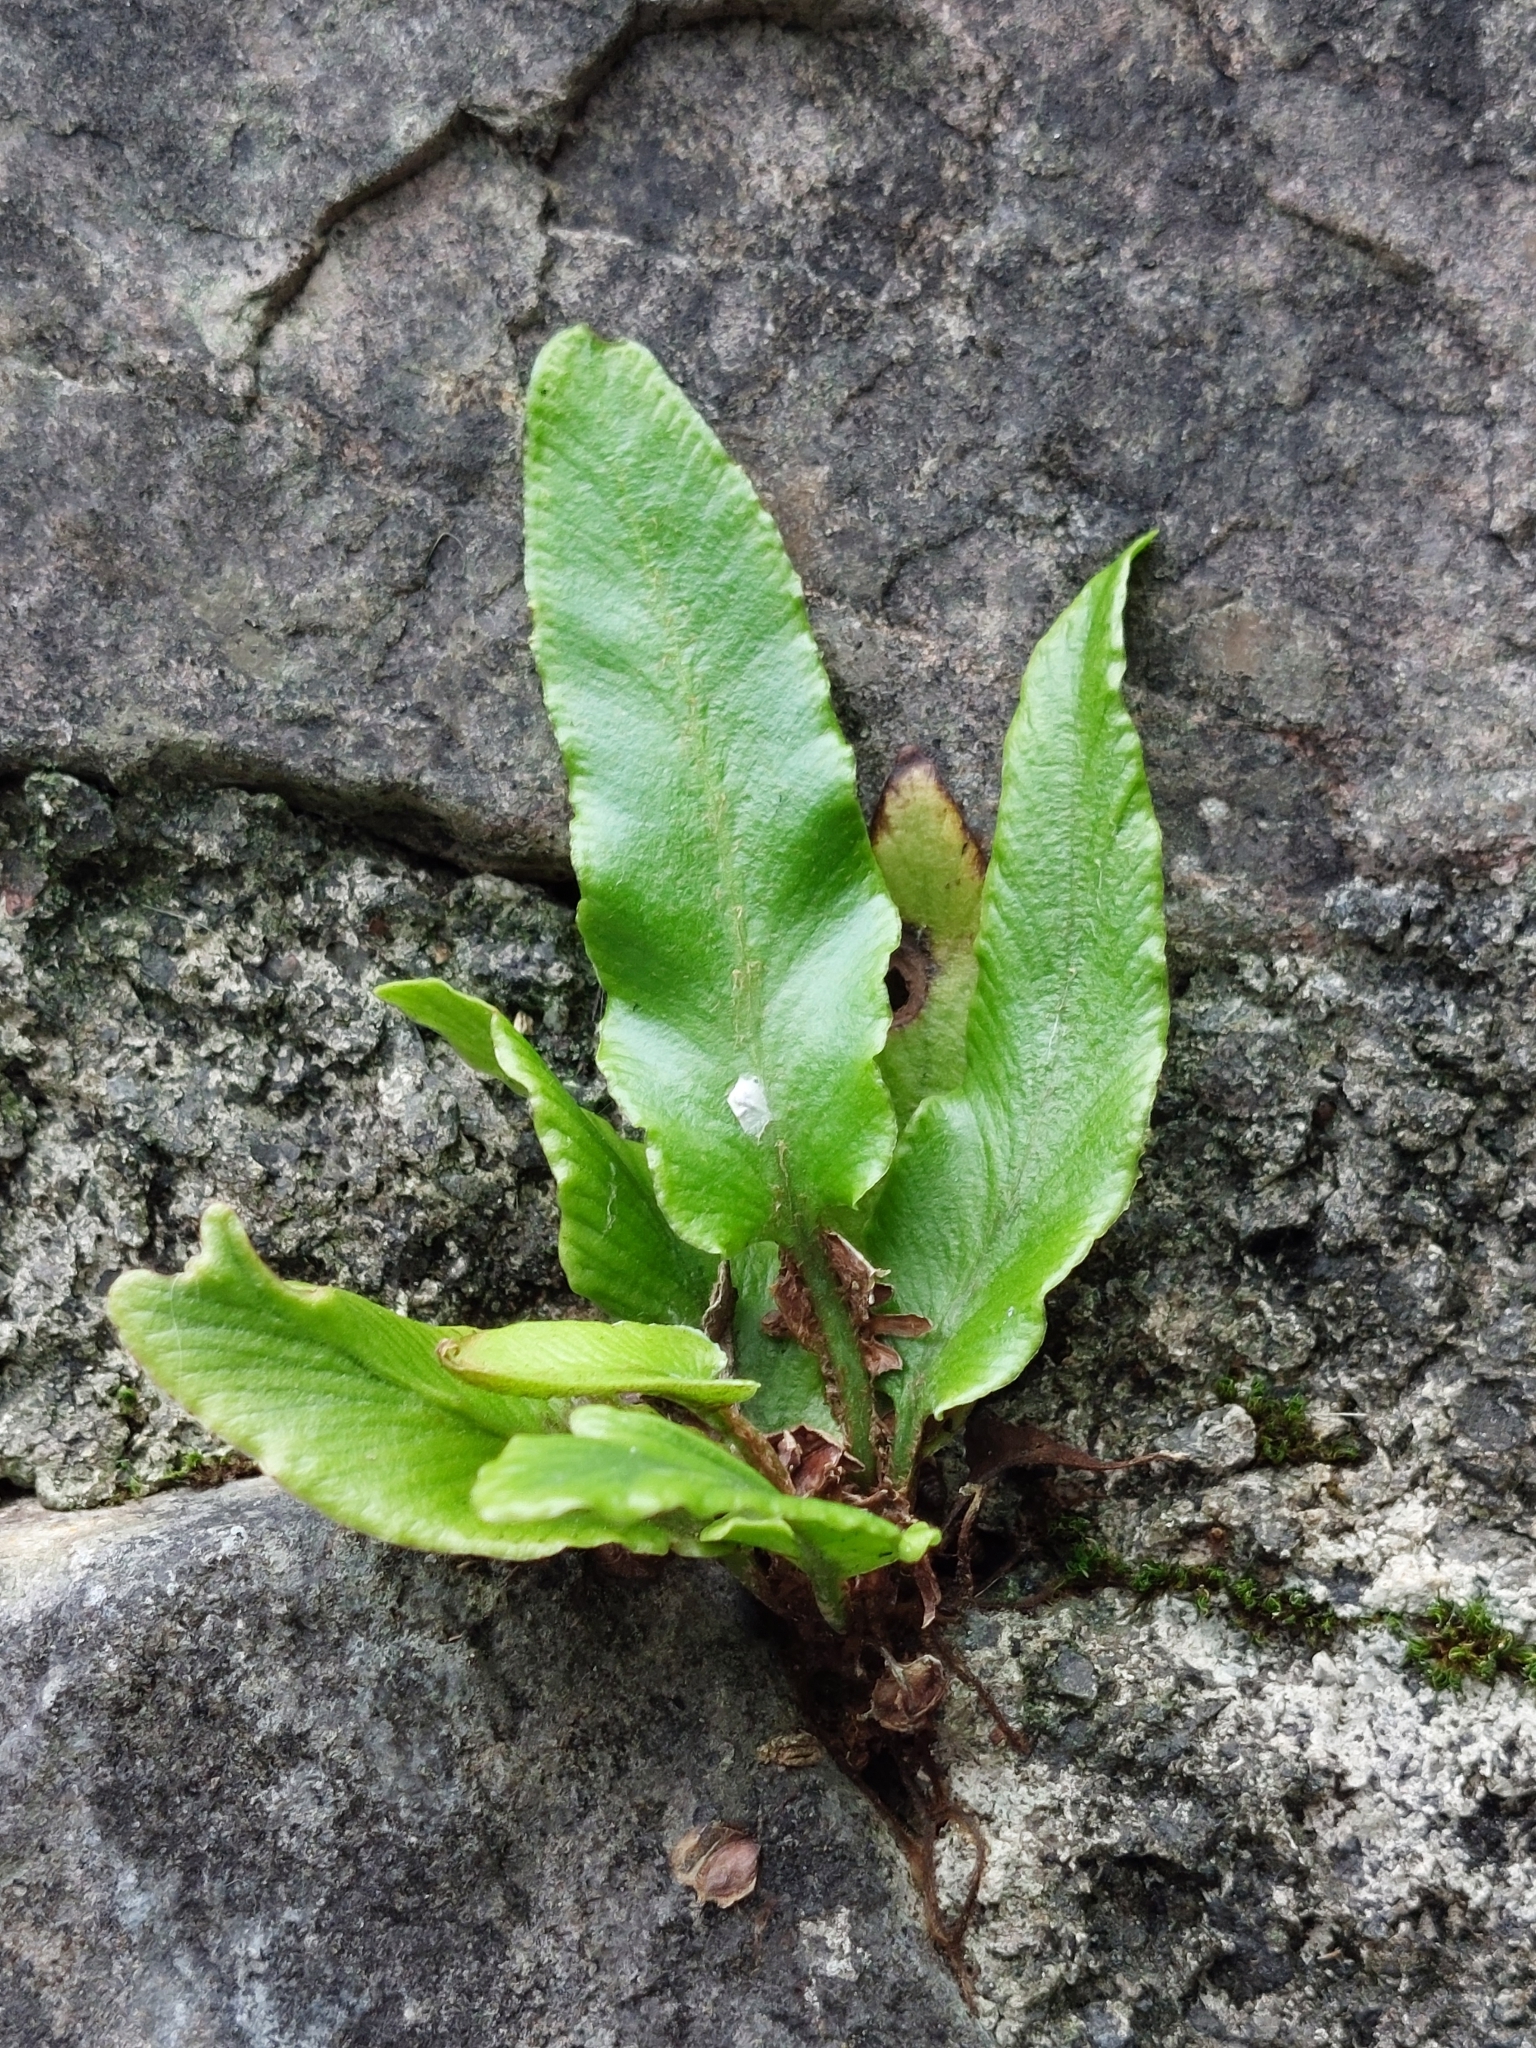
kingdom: Plantae
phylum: Tracheophyta
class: Polypodiopsida
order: Polypodiales
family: Aspleniaceae
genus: Asplenium
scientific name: Asplenium scolopendrium
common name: Hart's-tongue fern
